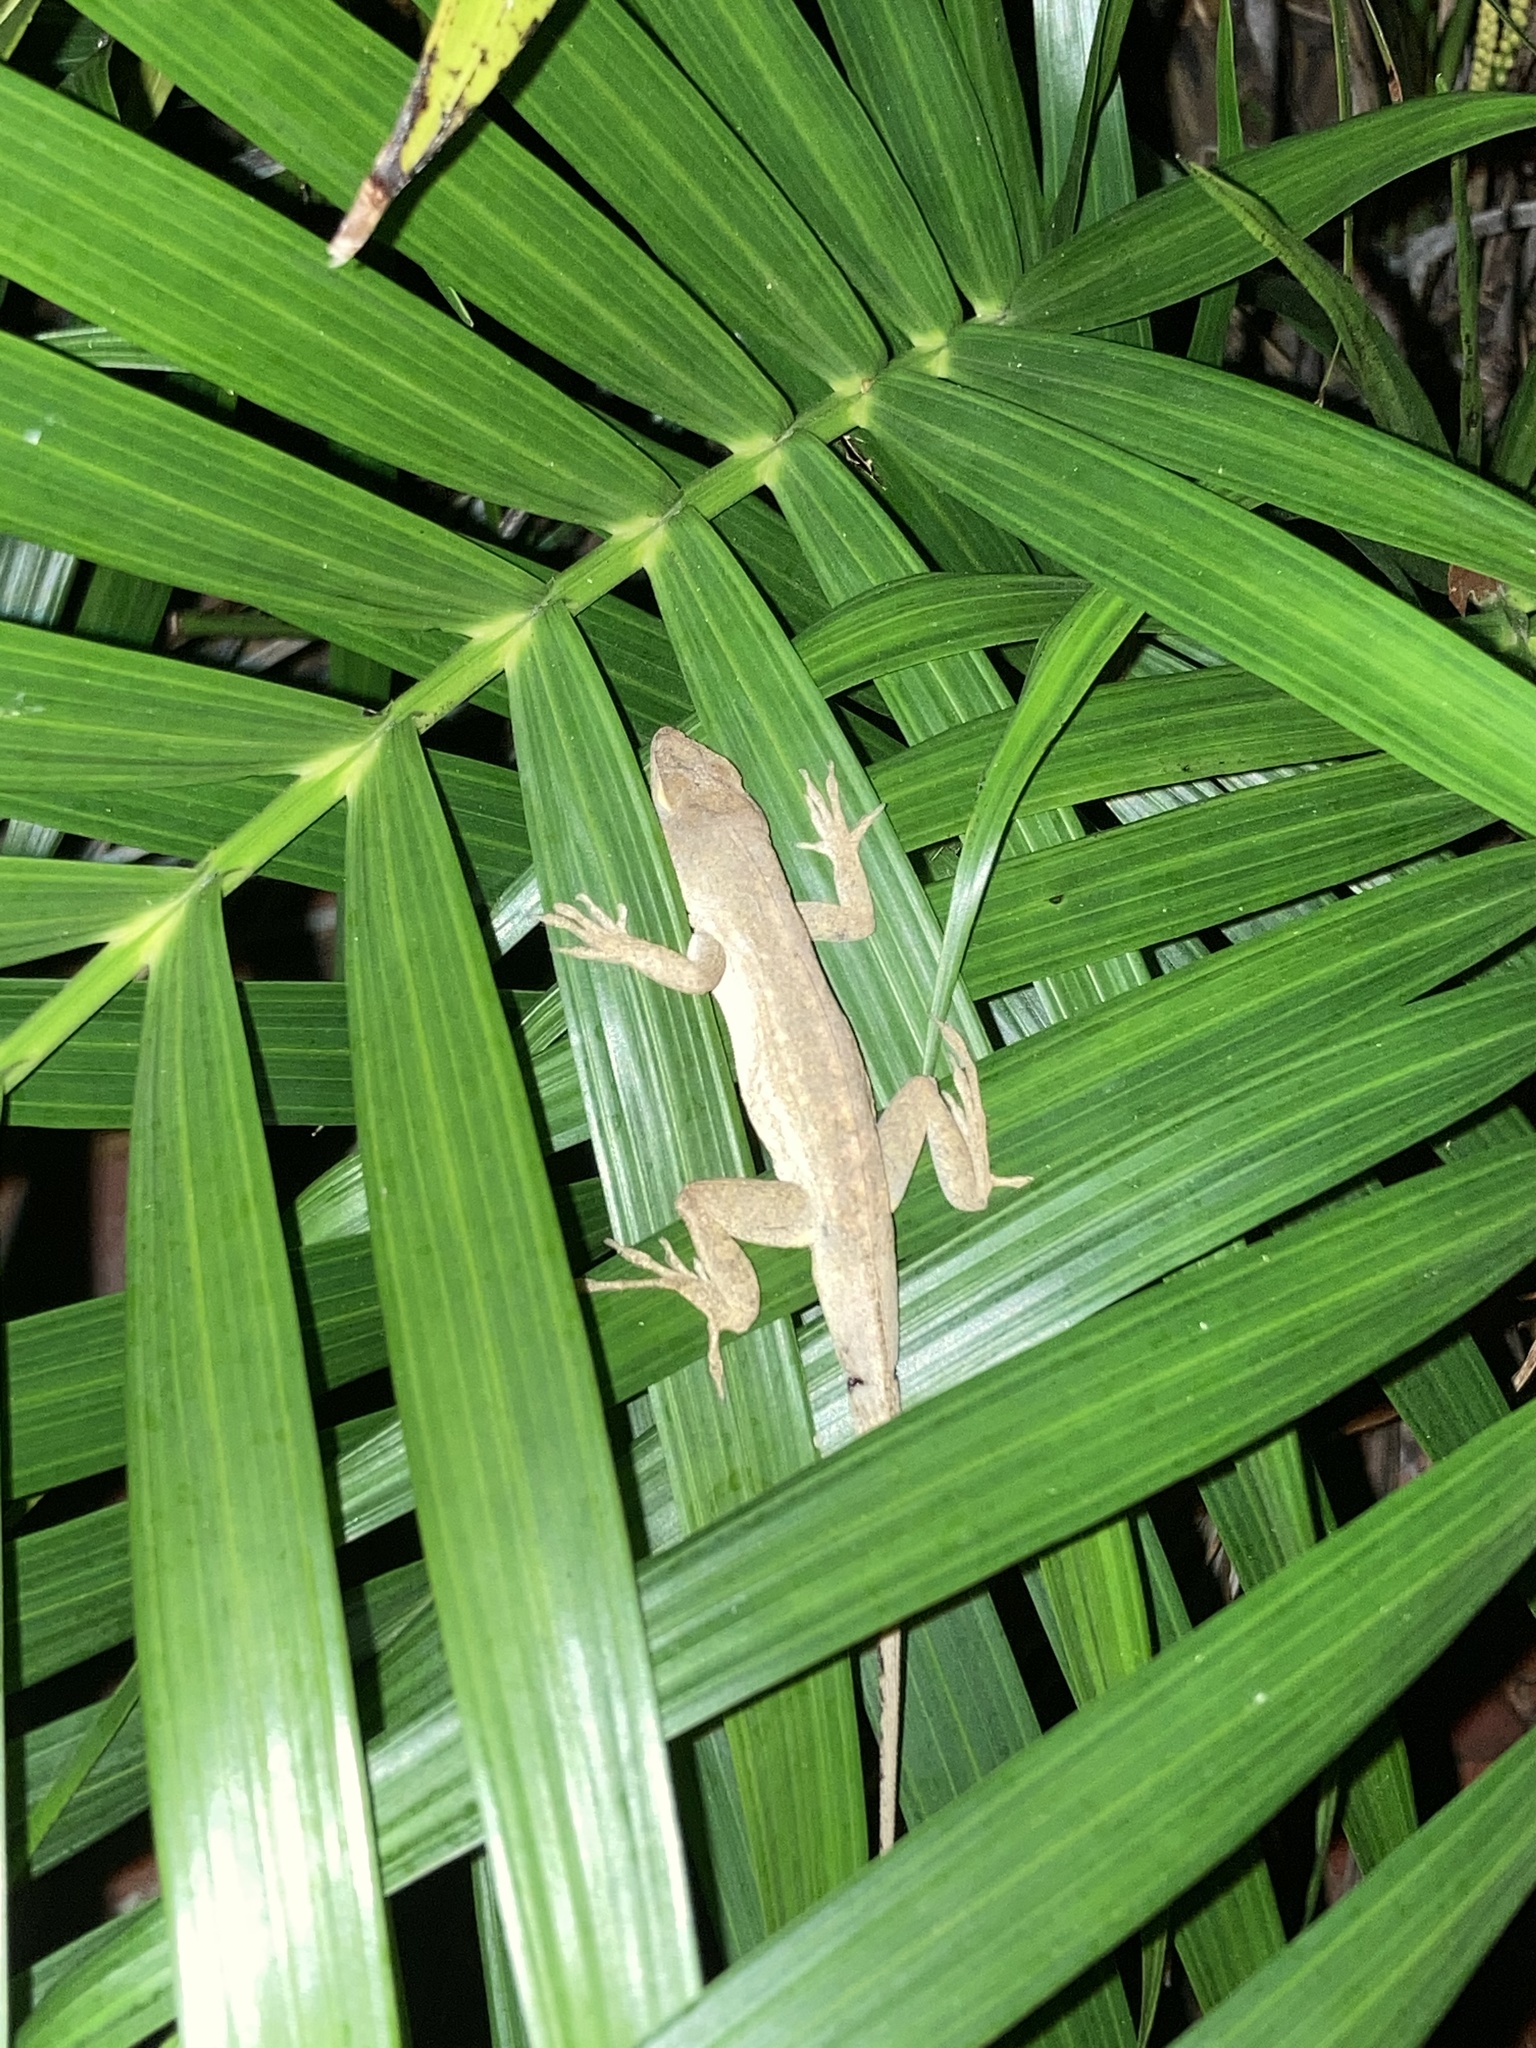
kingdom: Animalia
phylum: Chordata
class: Squamata
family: Dactyloidae
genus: Anolis
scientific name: Anolis sagrei
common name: Brown anole
